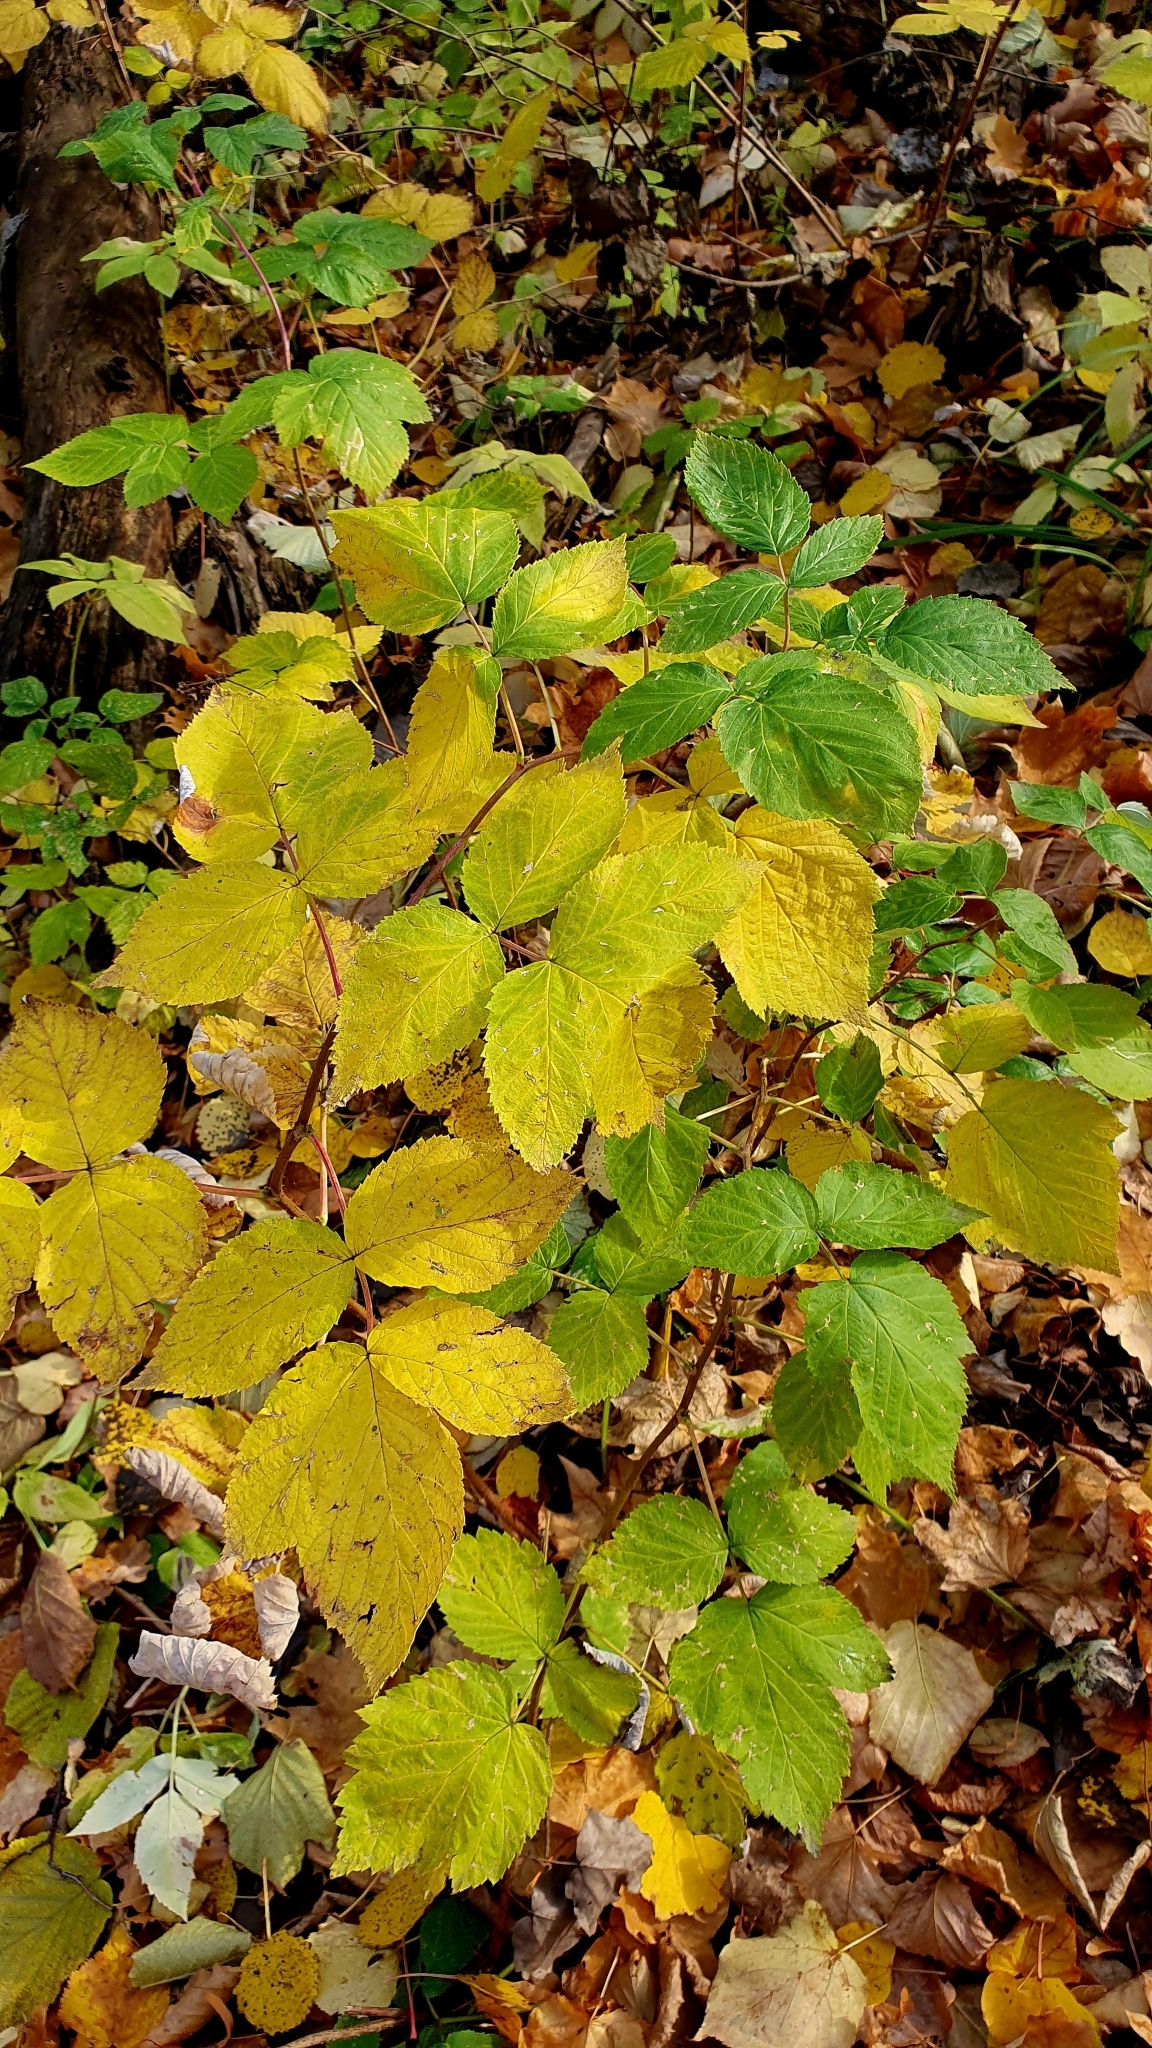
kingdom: Plantae
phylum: Tracheophyta
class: Magnoliopsida
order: Rosales
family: Rosaceae
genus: Rubus
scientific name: Rubus idaeus
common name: Raspberry
